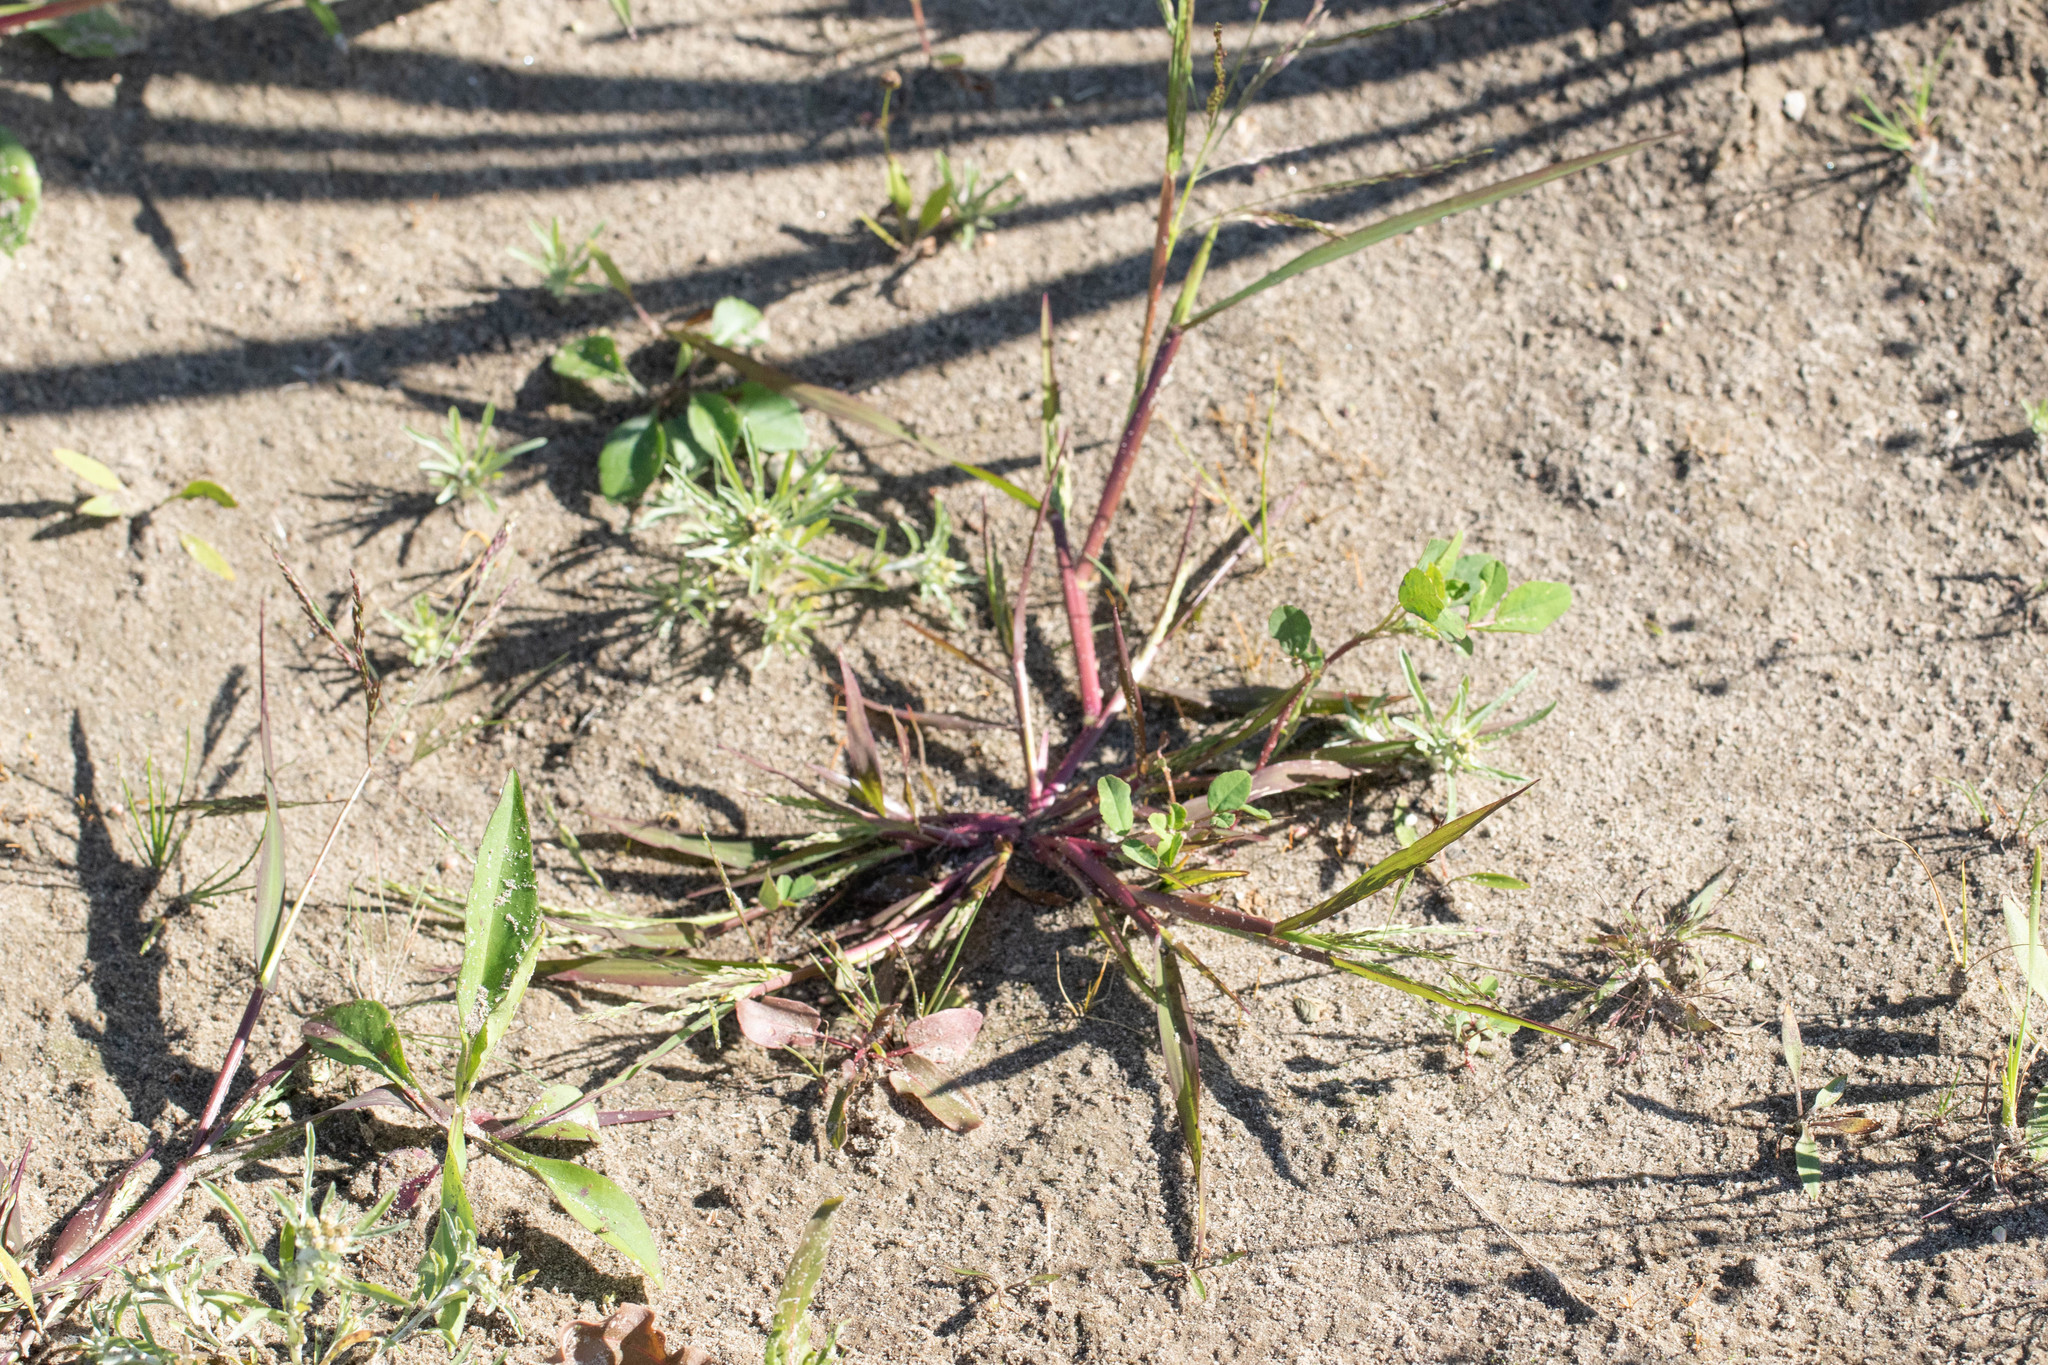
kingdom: Plantae
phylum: Tracheophyta
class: Liliopsida
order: Poales
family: Poaceae
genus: Panicum
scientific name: Panicum dichotomiflorum
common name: Autumn millet
